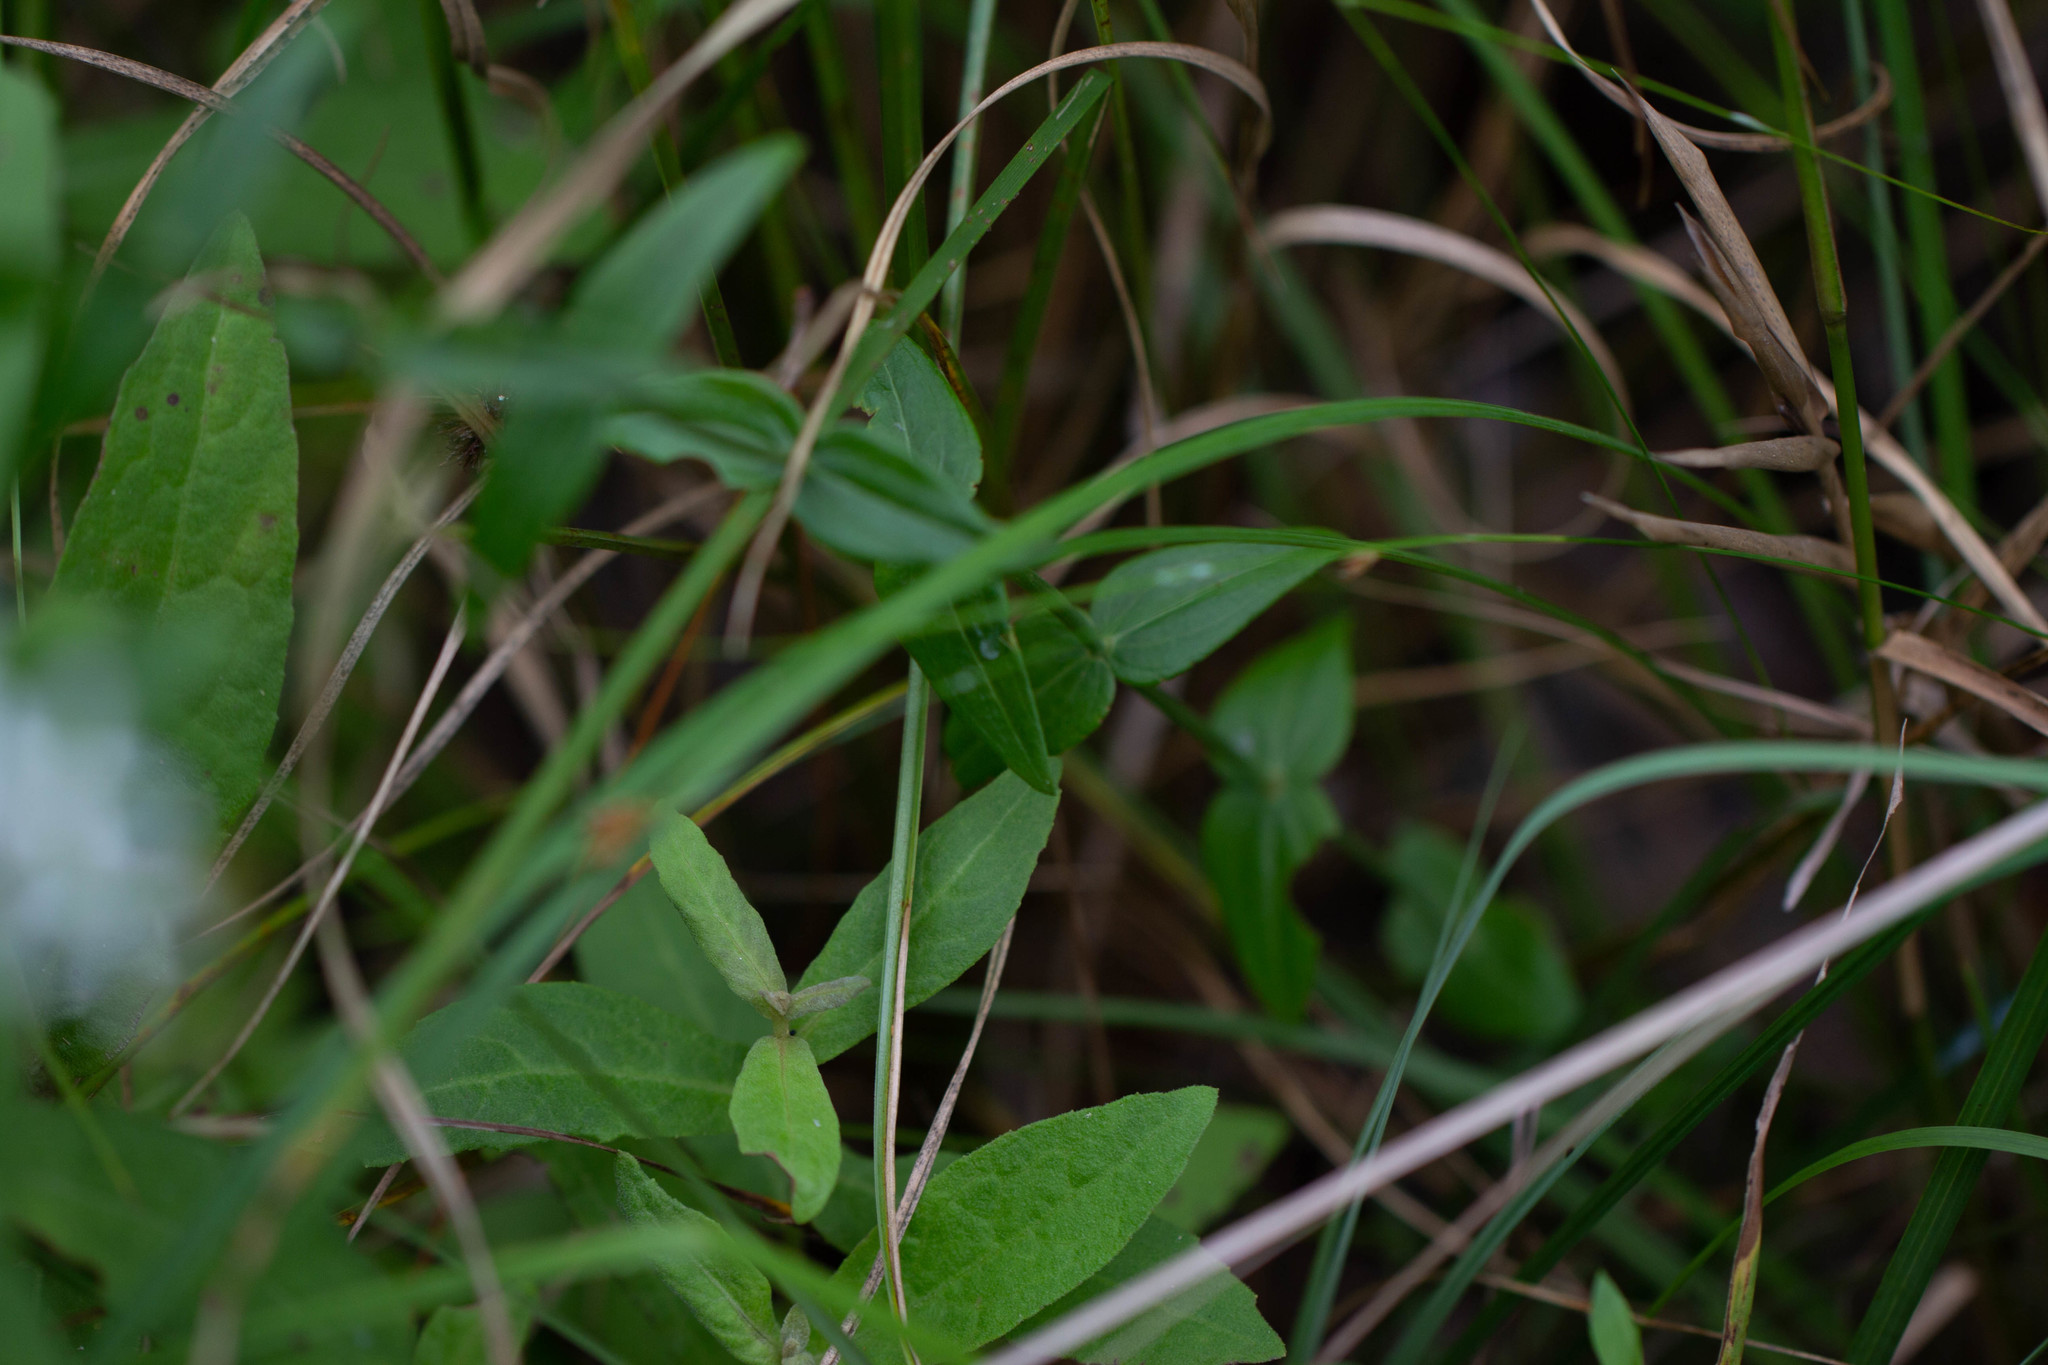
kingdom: Plantae
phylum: Tracheophyta
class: Magnoliopsida
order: Gentianales
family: Gentianaceae
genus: Sabatia
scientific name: Sabatia difformis
